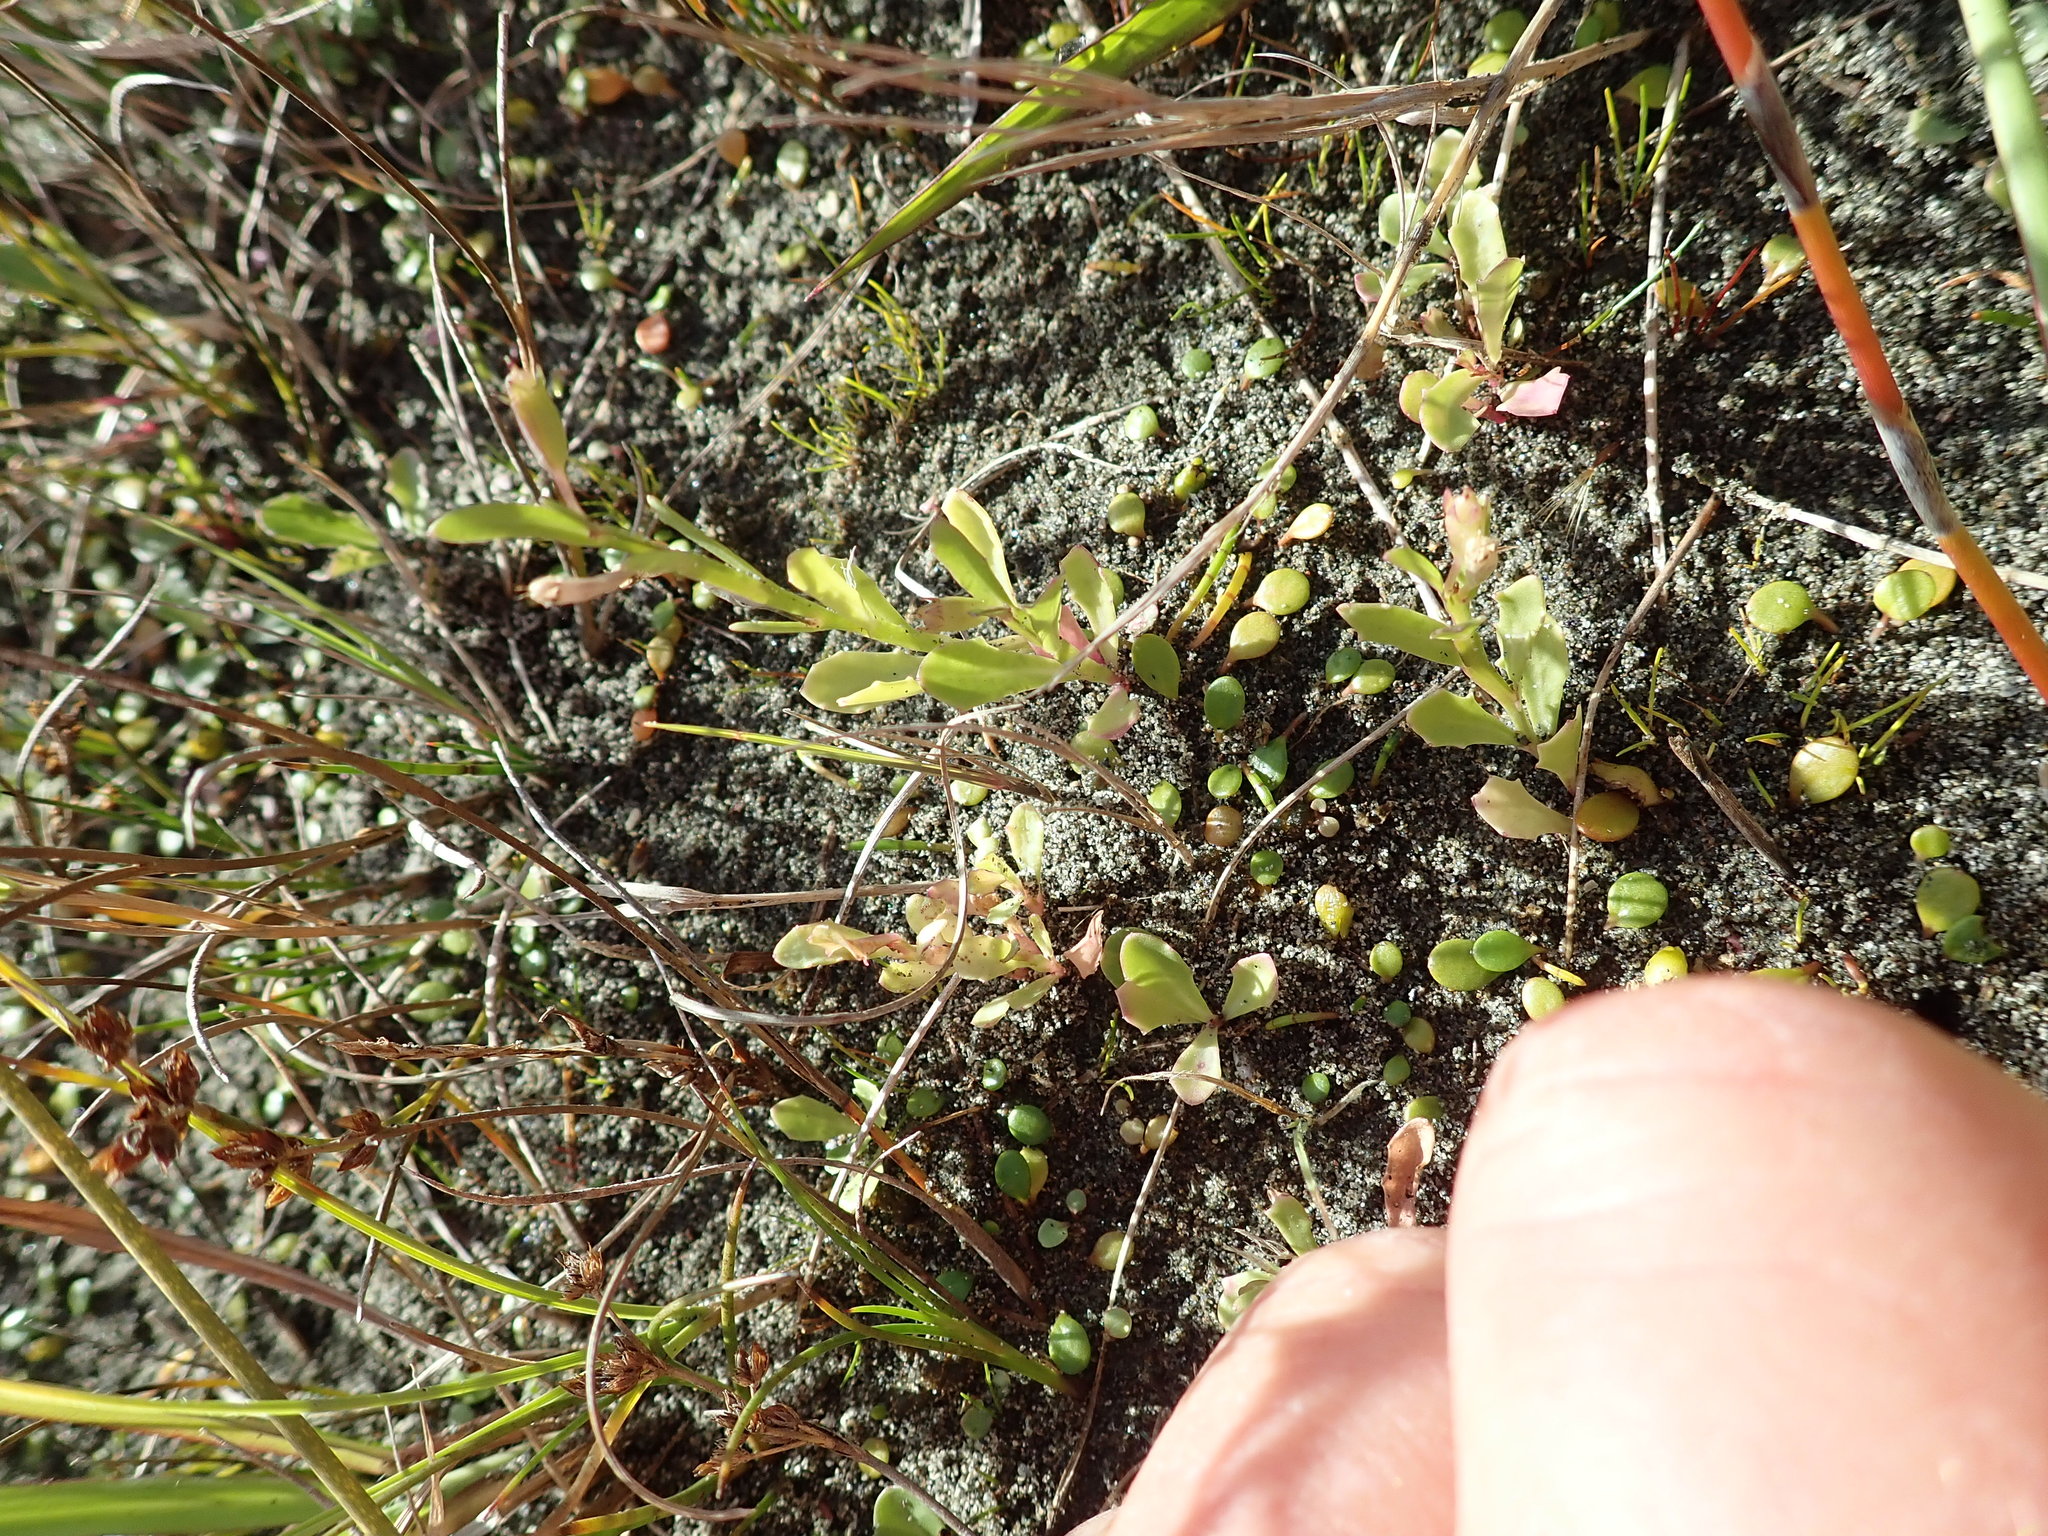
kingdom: Plantae
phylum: Tracheophyta
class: Magnoliopsida
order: Asterales
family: Campanulaceae
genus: Lobelia
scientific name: Lobelia anceps
